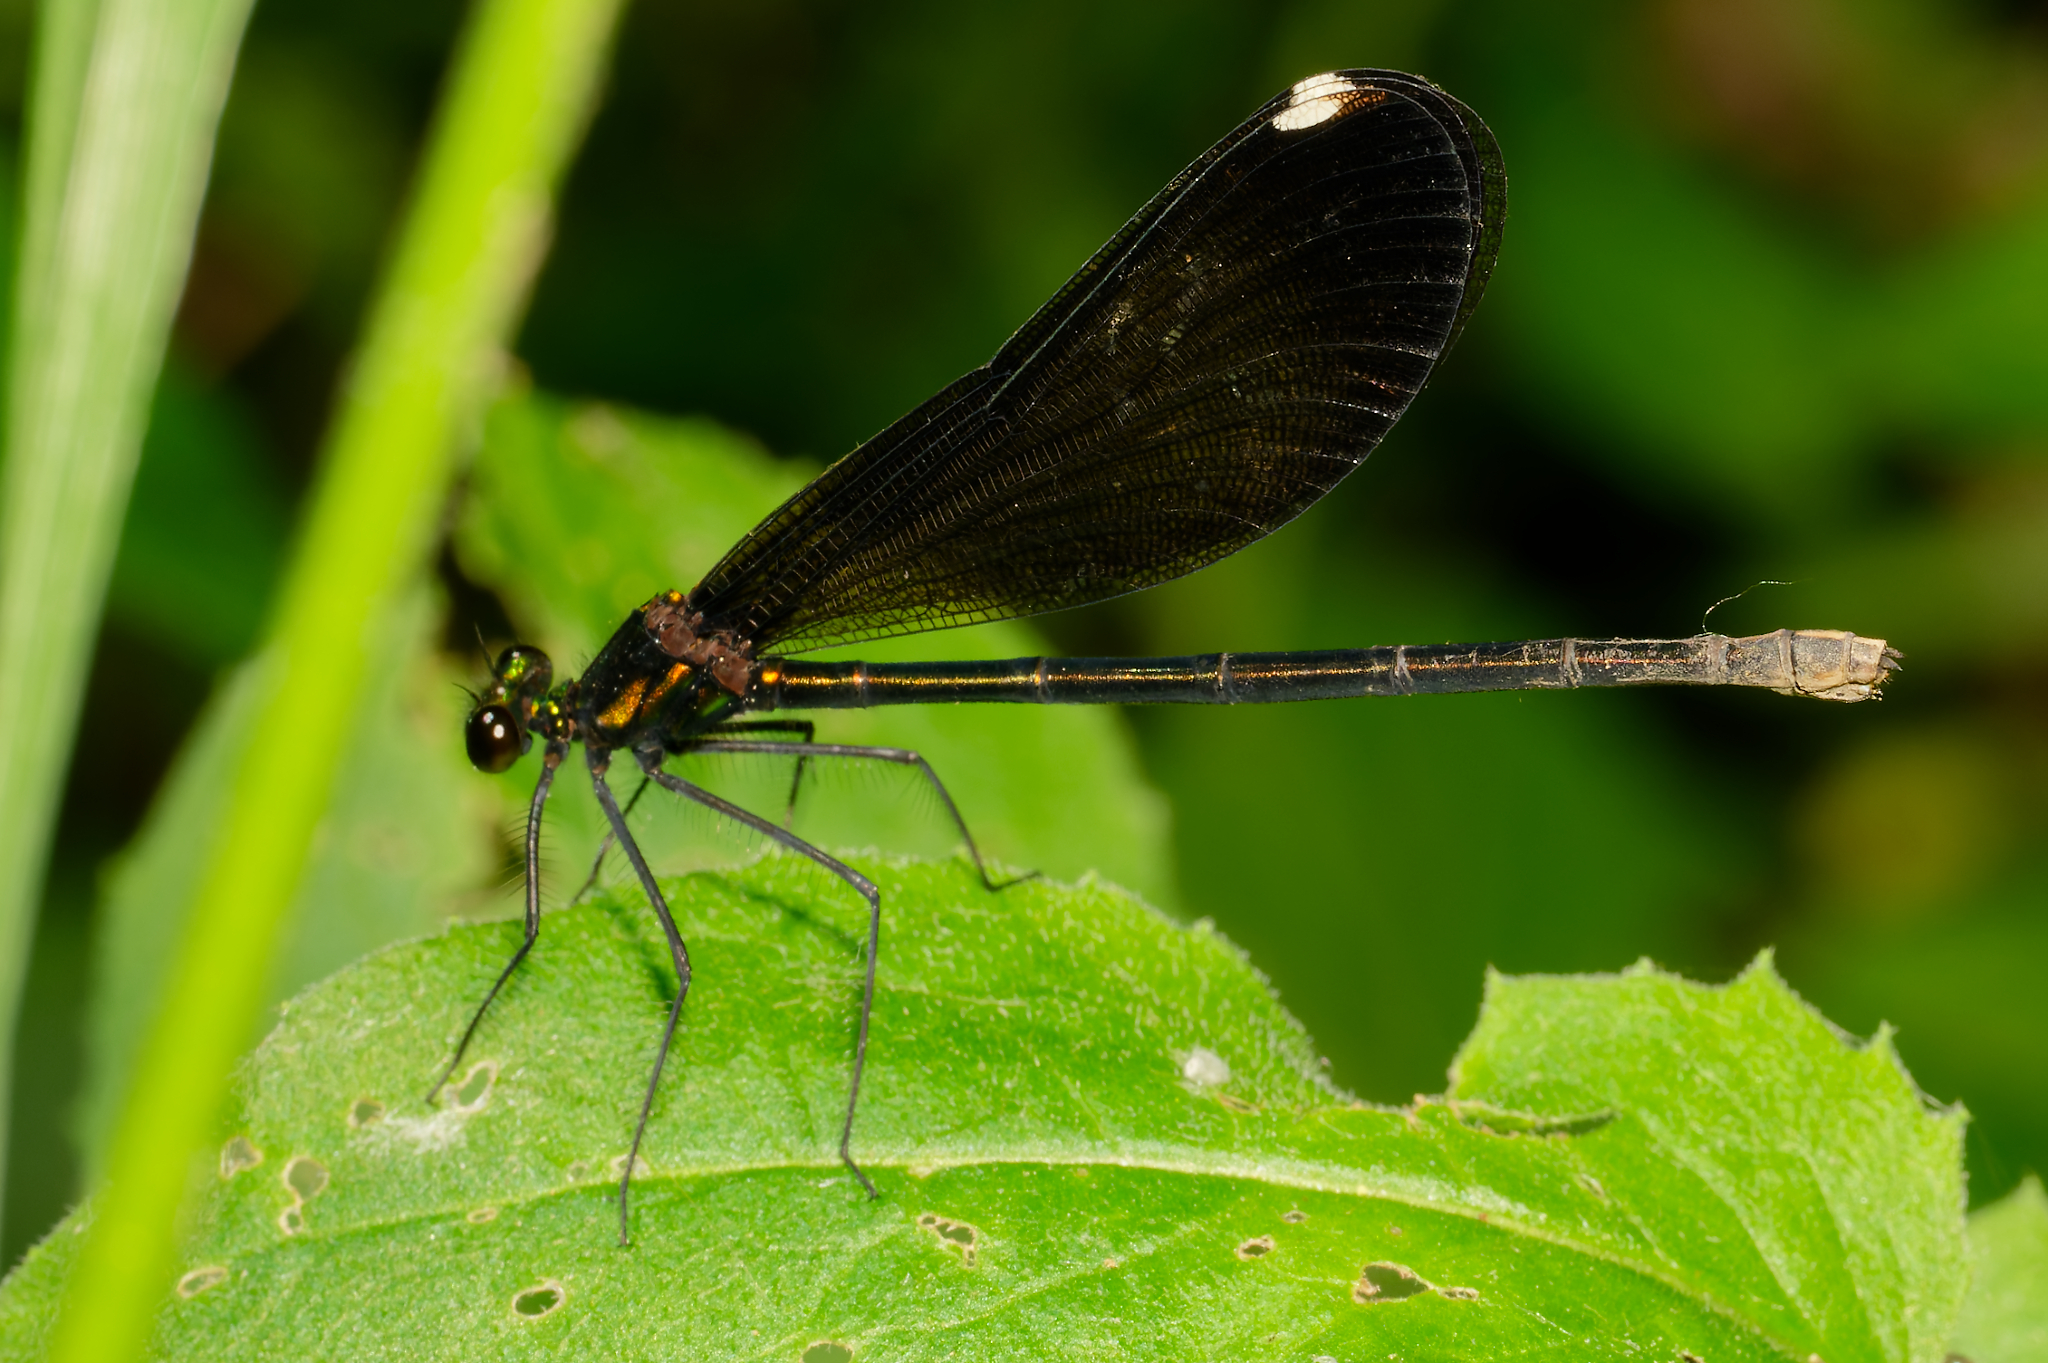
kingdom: Animalia
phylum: Arthropoda
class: Insecta
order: Odonata
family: Calopterygidae
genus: Calopteryx
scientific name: Calopteryx maculata
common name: Ebony jewelwing
